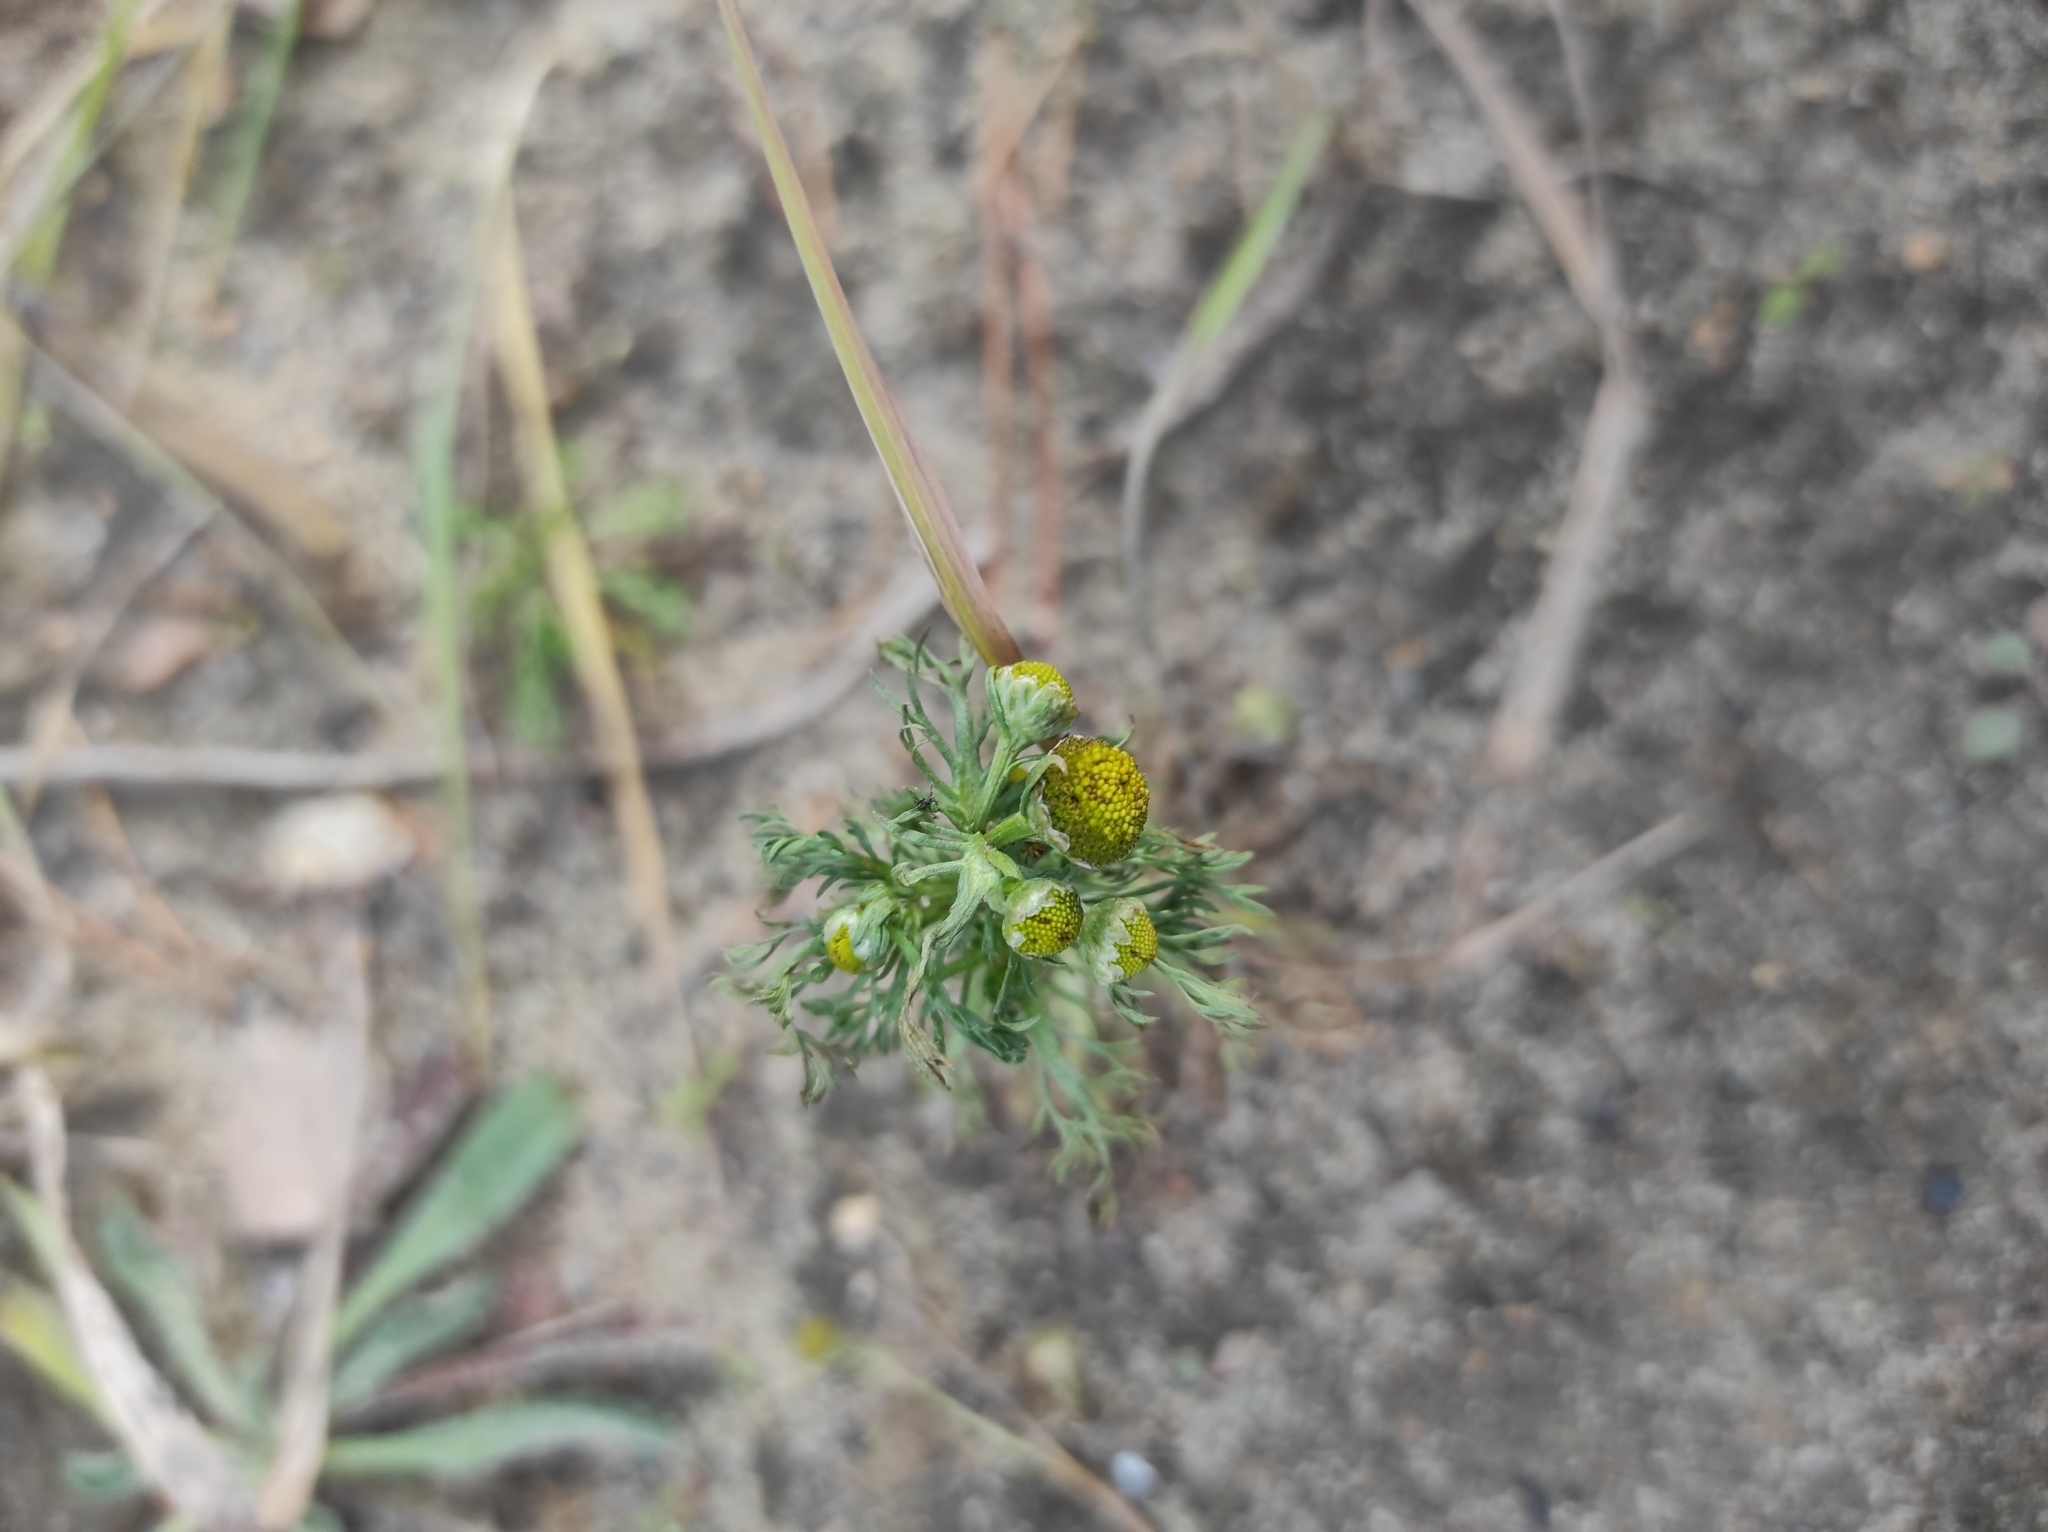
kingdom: Plantae
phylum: Tracheophyta
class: Magnoliopsida
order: Asterales
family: Asteraceae
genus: Leucanthemum
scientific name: Leucanthemum vulgare
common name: Oxeye daisy
